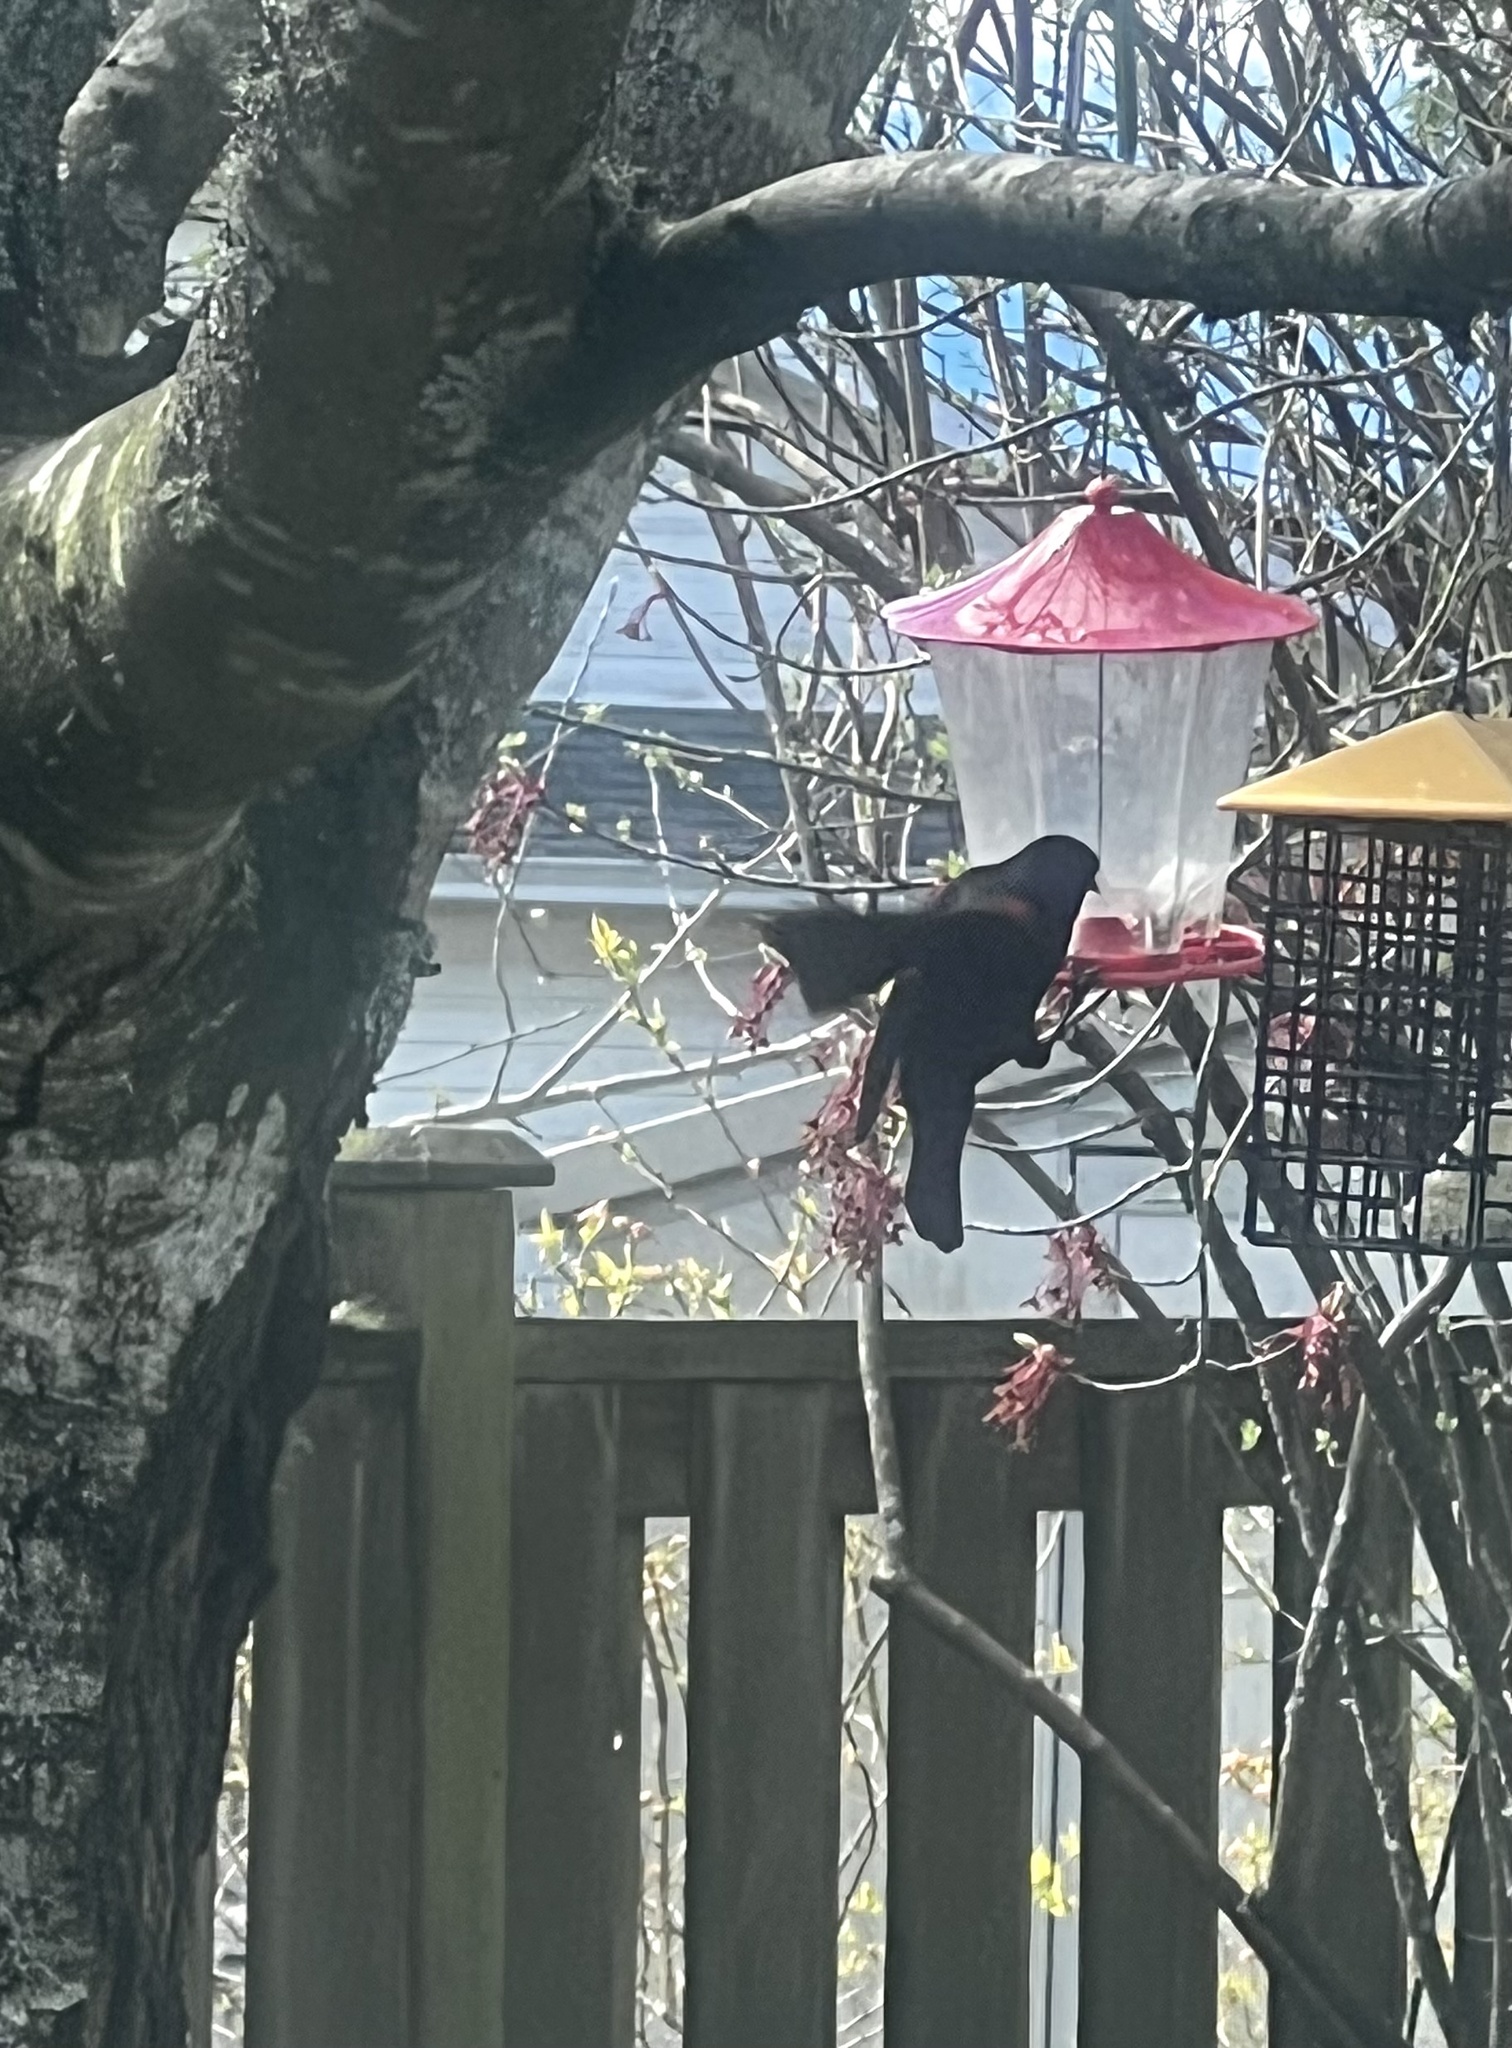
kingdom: Animalia
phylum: Chordata
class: Aves
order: Passeriformes
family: Icteridae
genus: Agelaius
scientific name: Agelaius phoeniceus
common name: Red-winged blackbird
